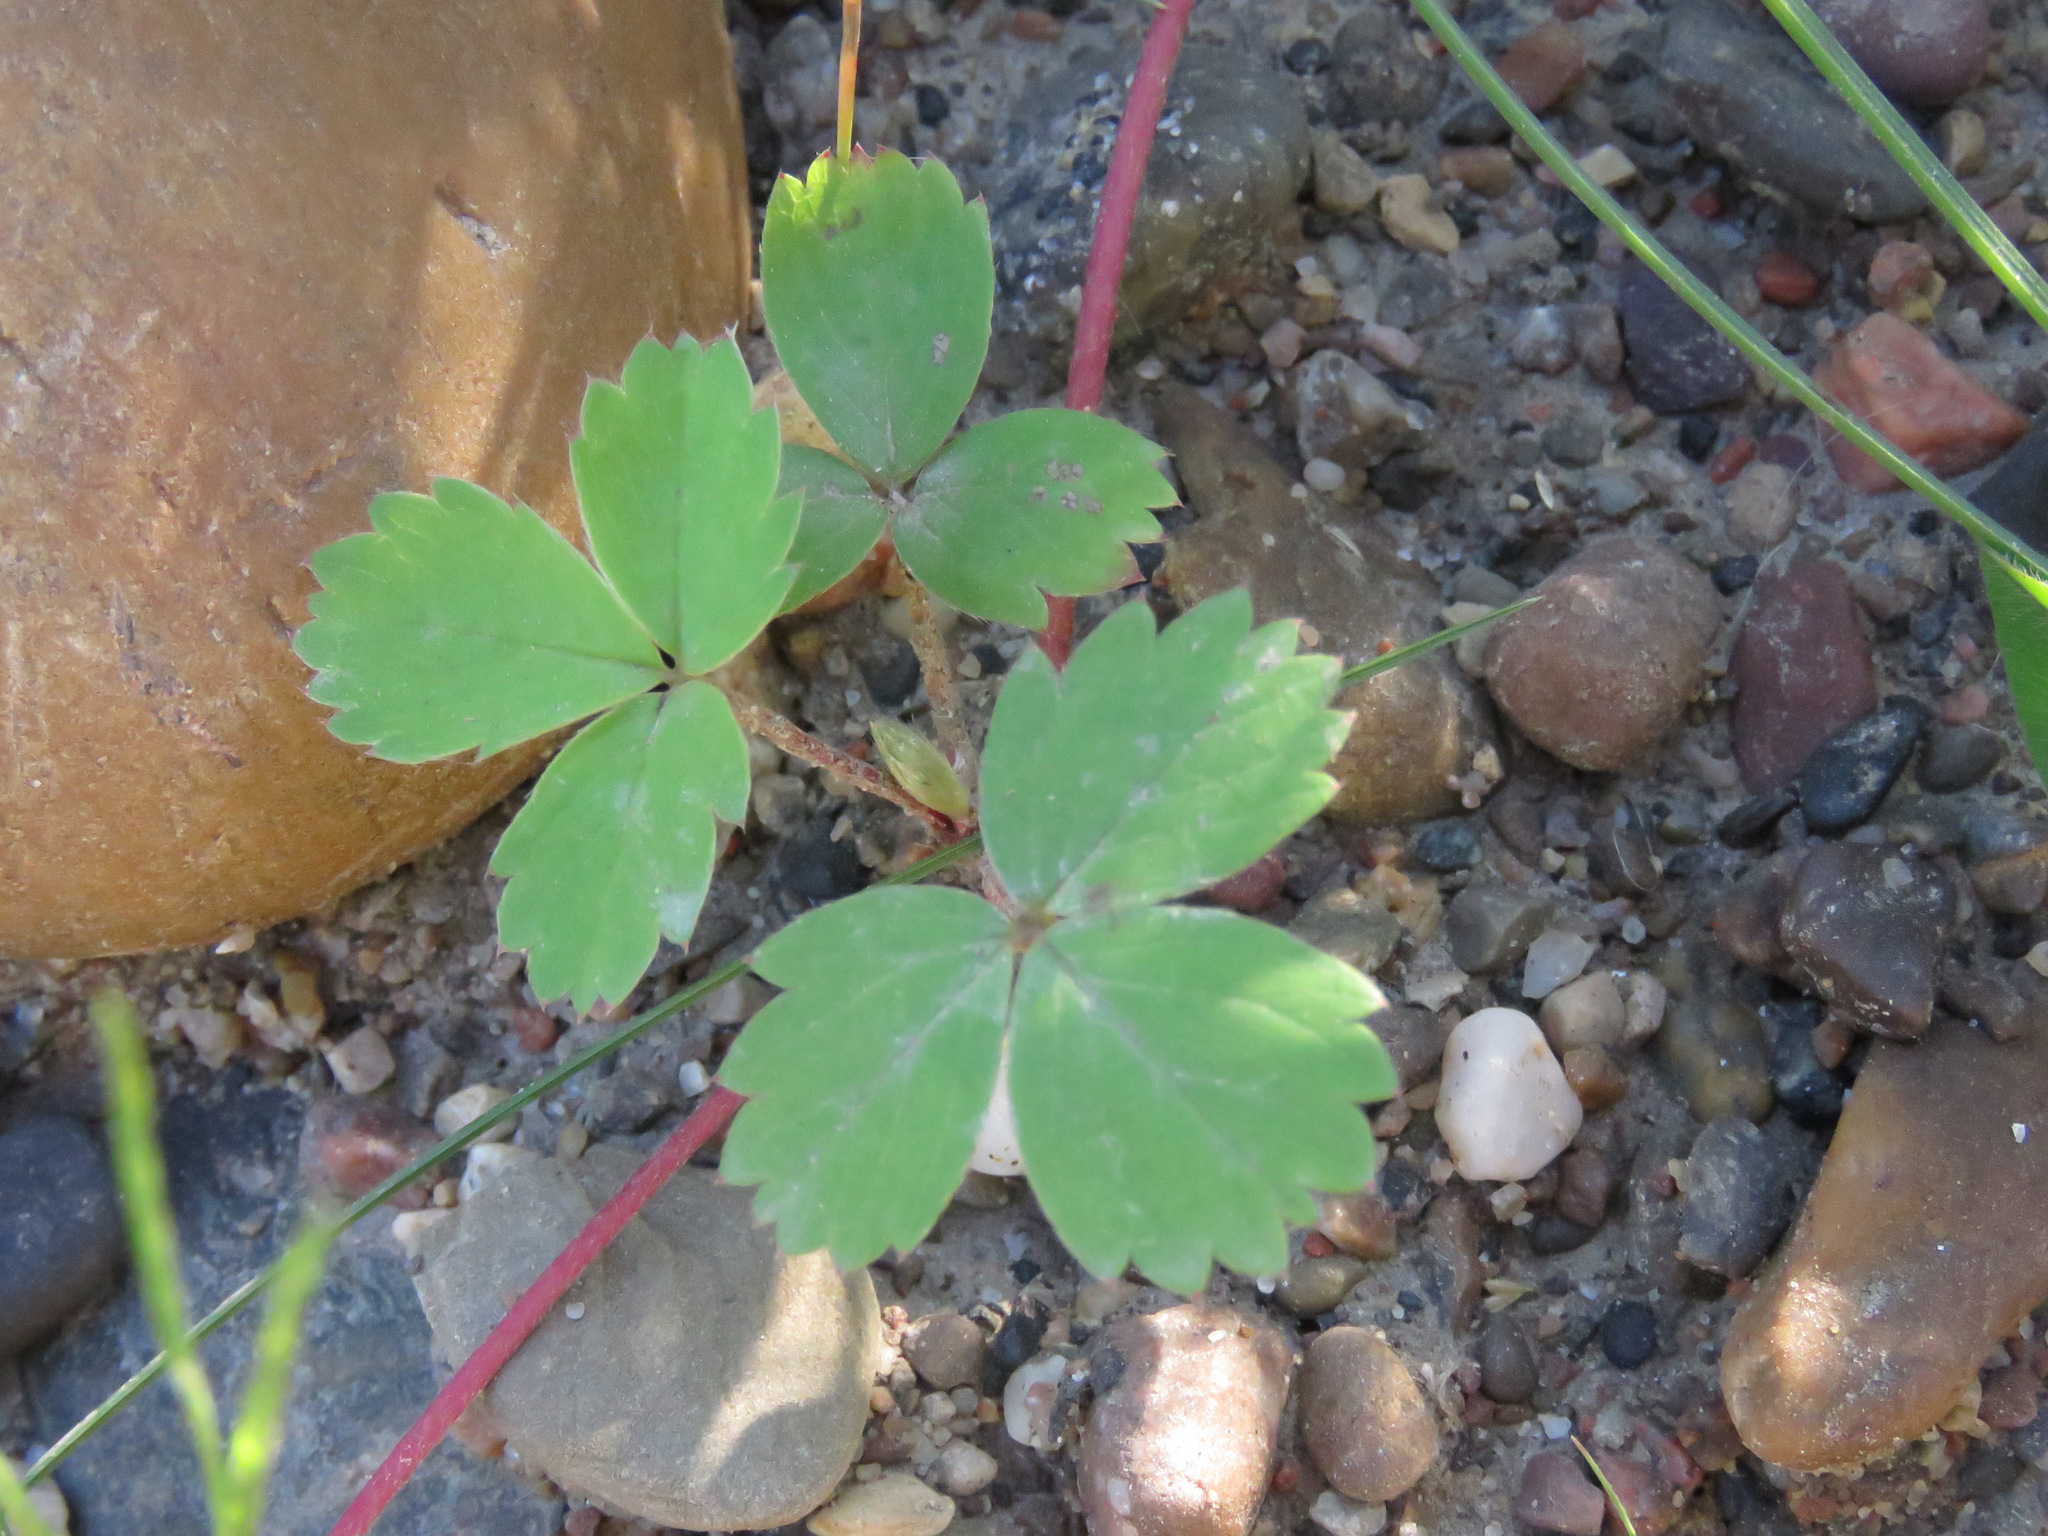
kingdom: Plantae
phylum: Tracheophyta
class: Magnoliopsida
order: Rosales
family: Rosaceae
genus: Fragaria
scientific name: Fragaria virginiana
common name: Thickleaved wild strawberry
